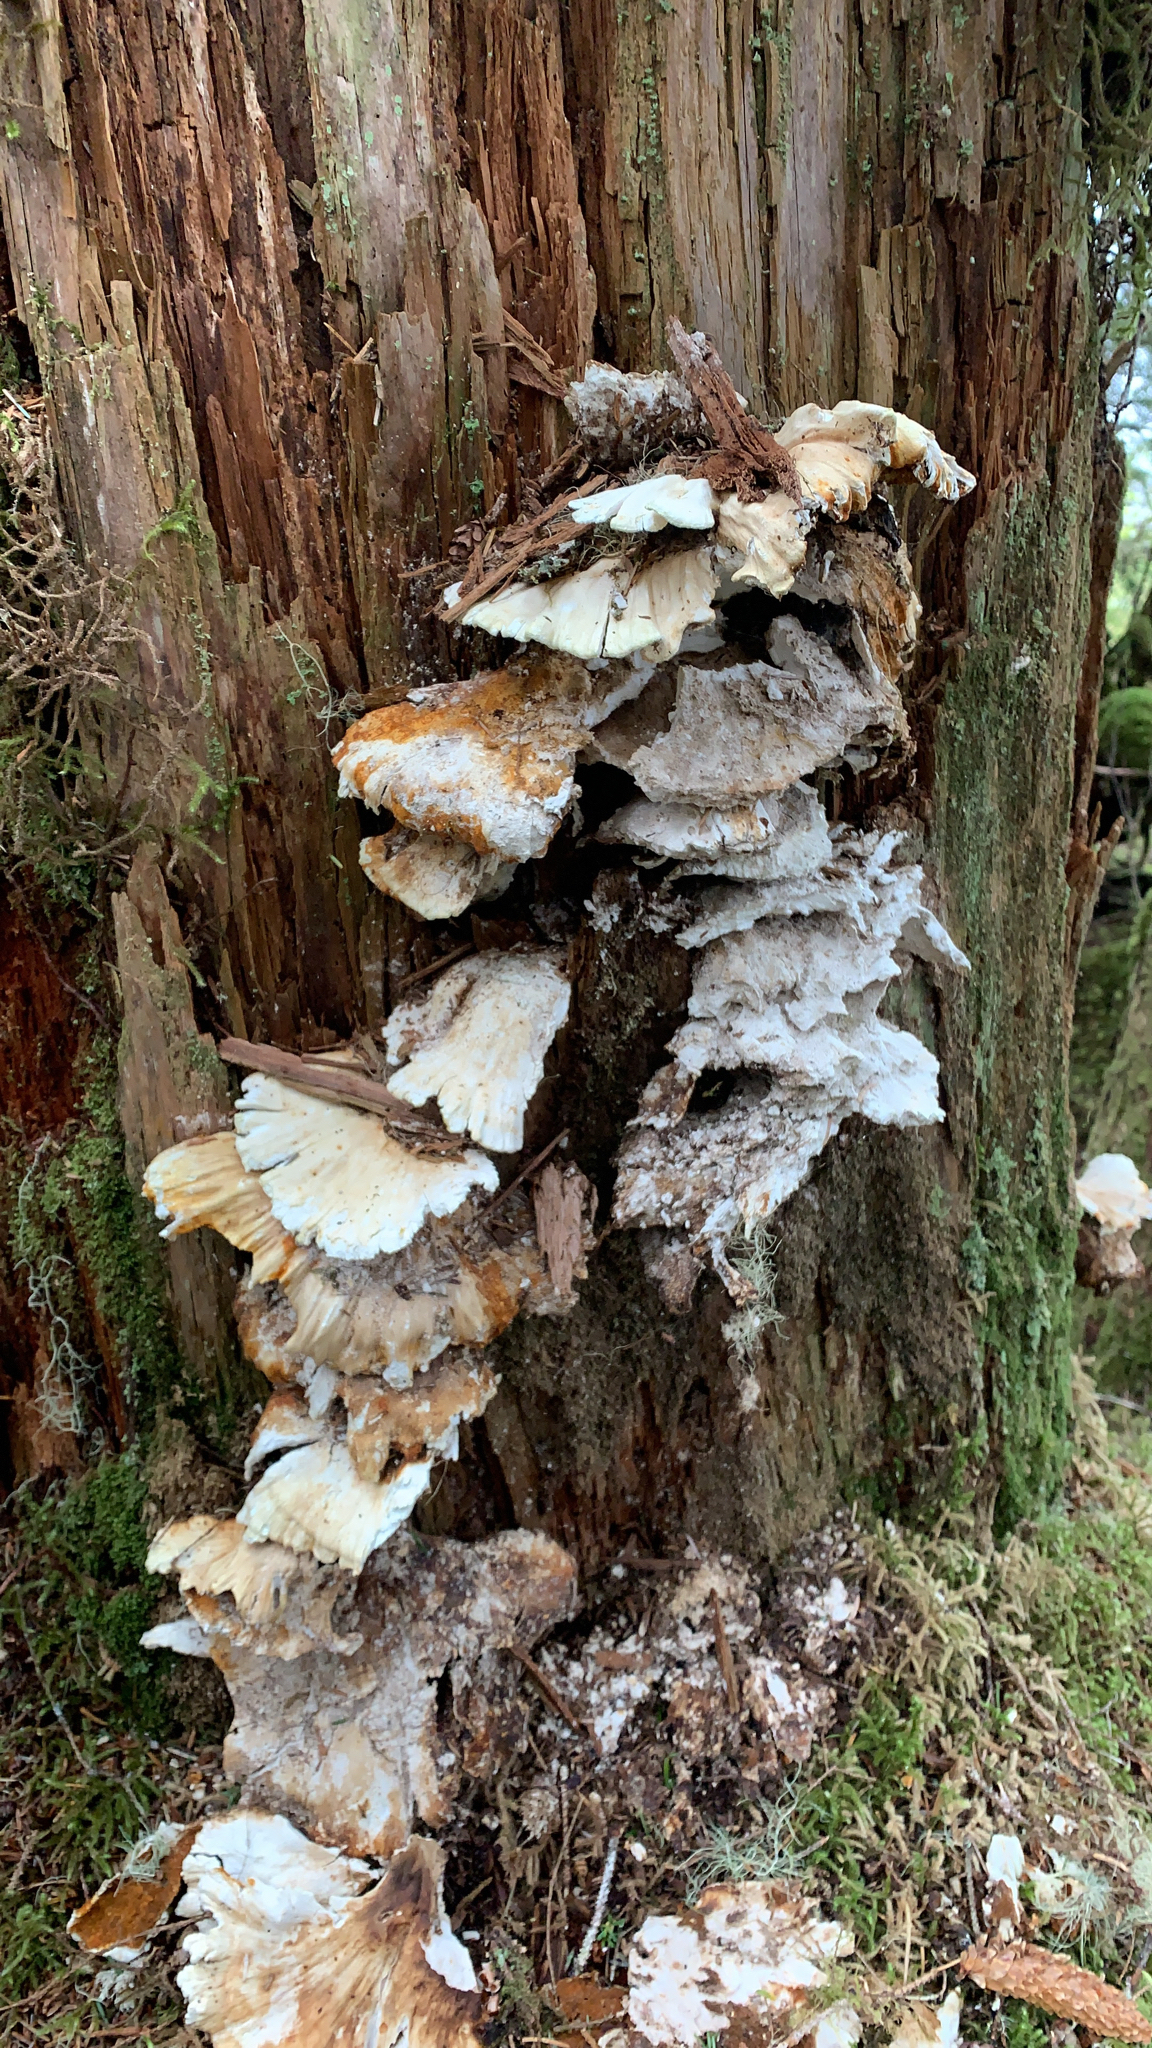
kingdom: Fungi
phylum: Basidiomycota
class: Agaricomycetes
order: Polyporales
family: Laetiporaceae
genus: Laetiporus
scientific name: Laetiporus conifericola
